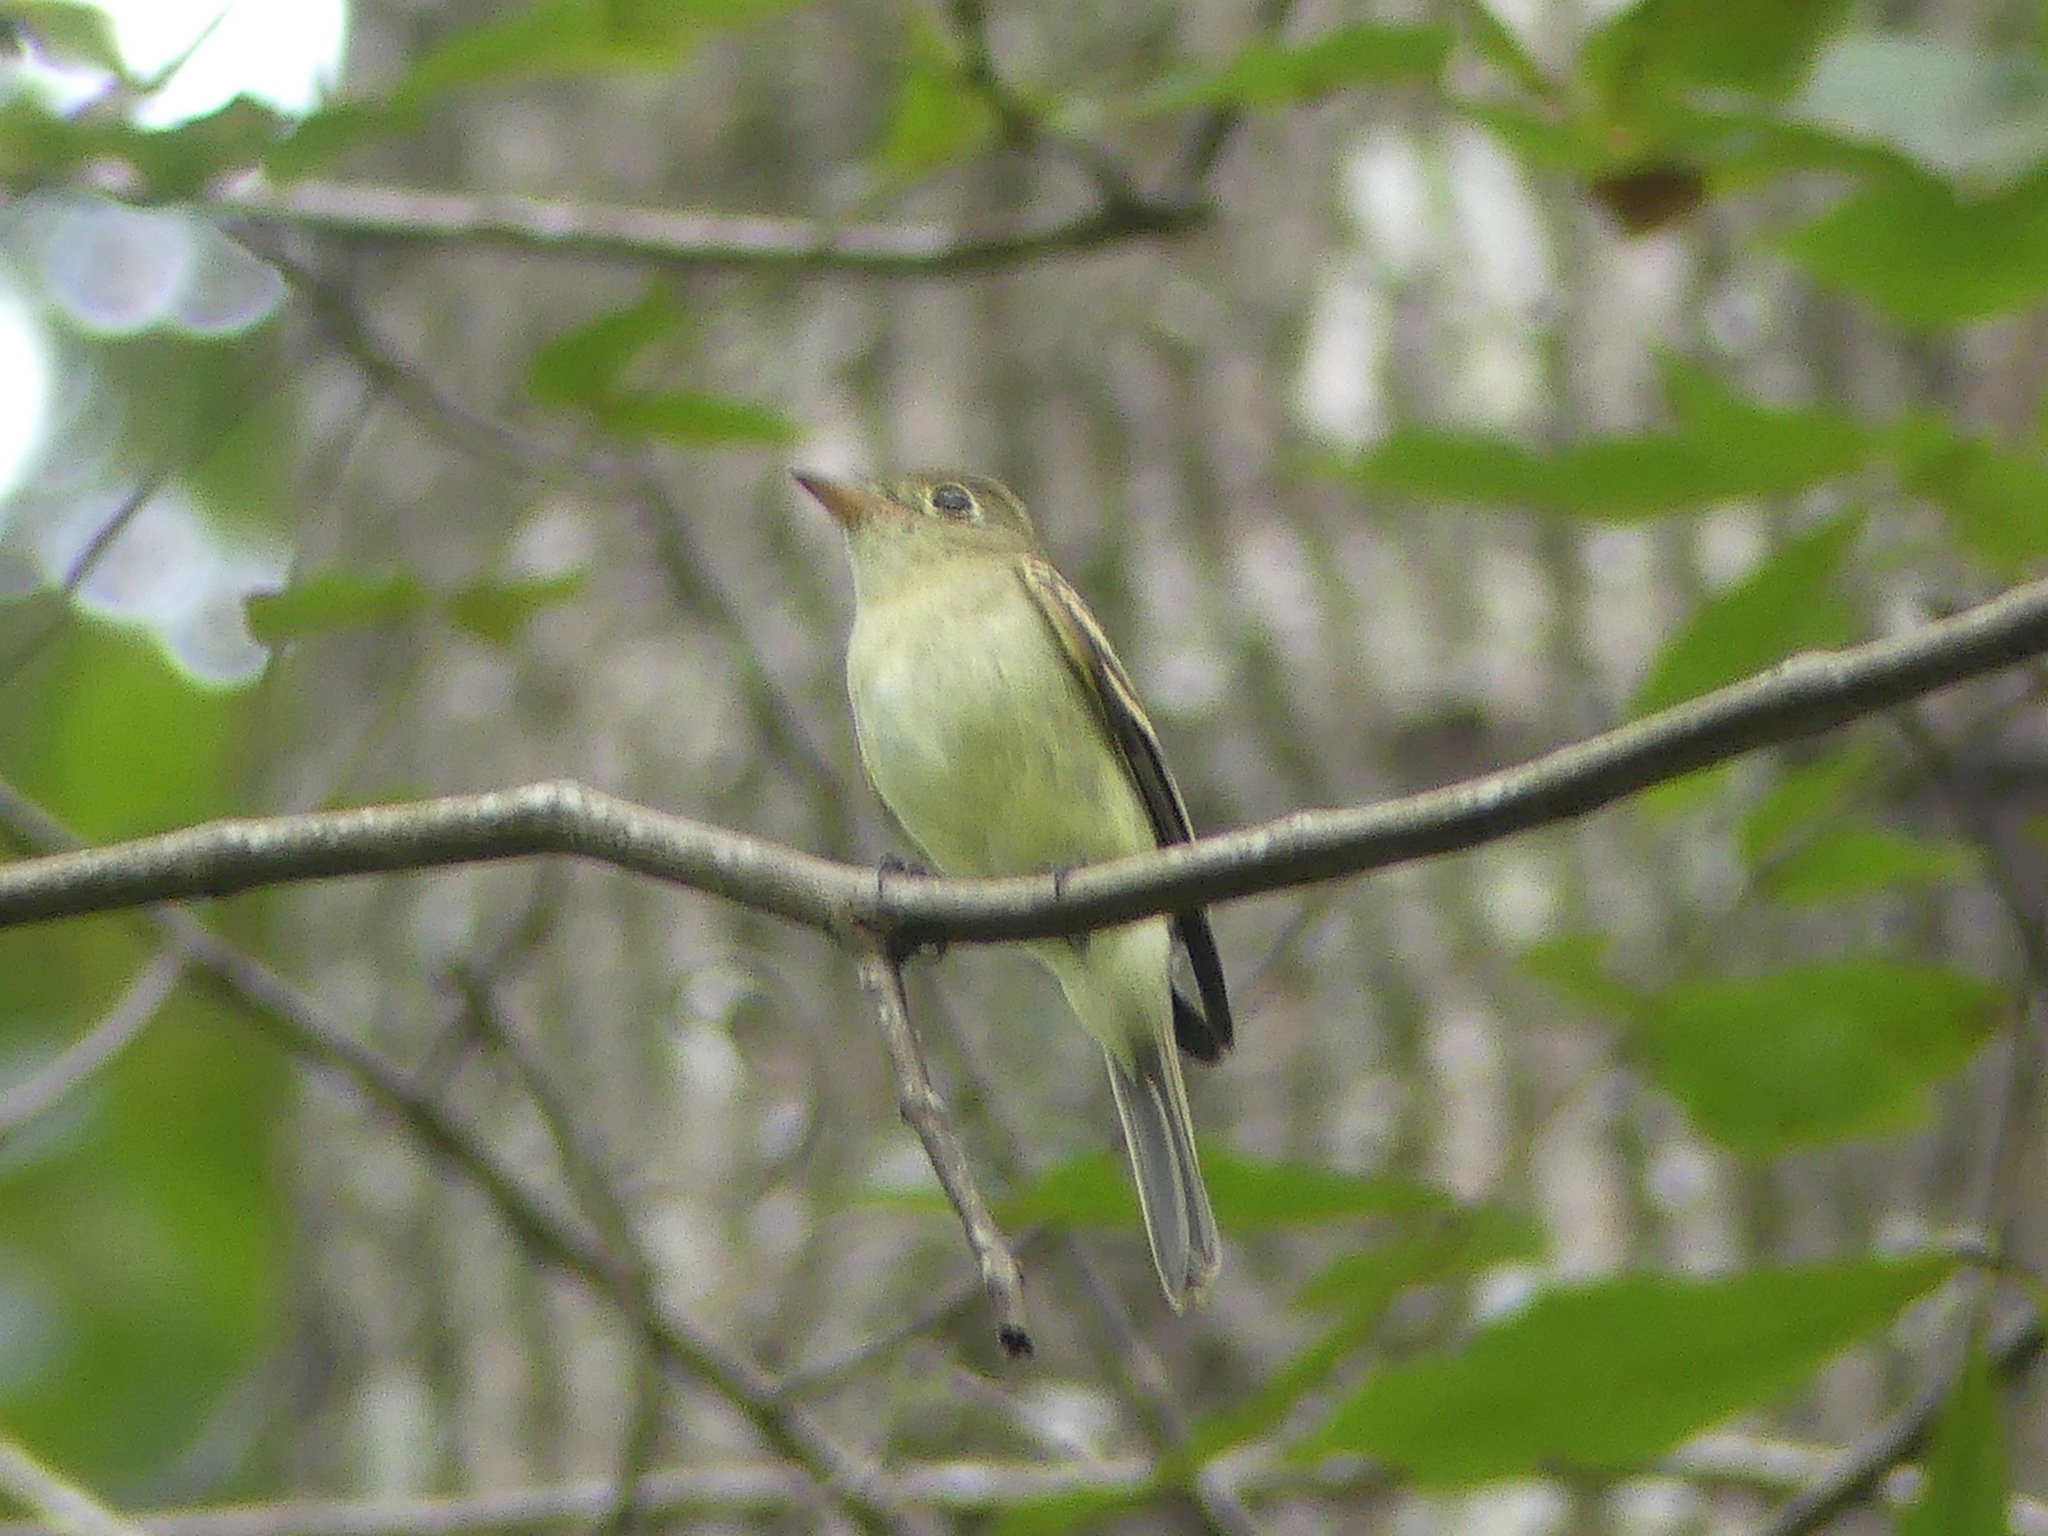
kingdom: Animalia
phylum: Chordata
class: Aves
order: Passeriformes
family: Tyrannidae
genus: Empidonax
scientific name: Empidonax virescens
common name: Acadian flycatcher
